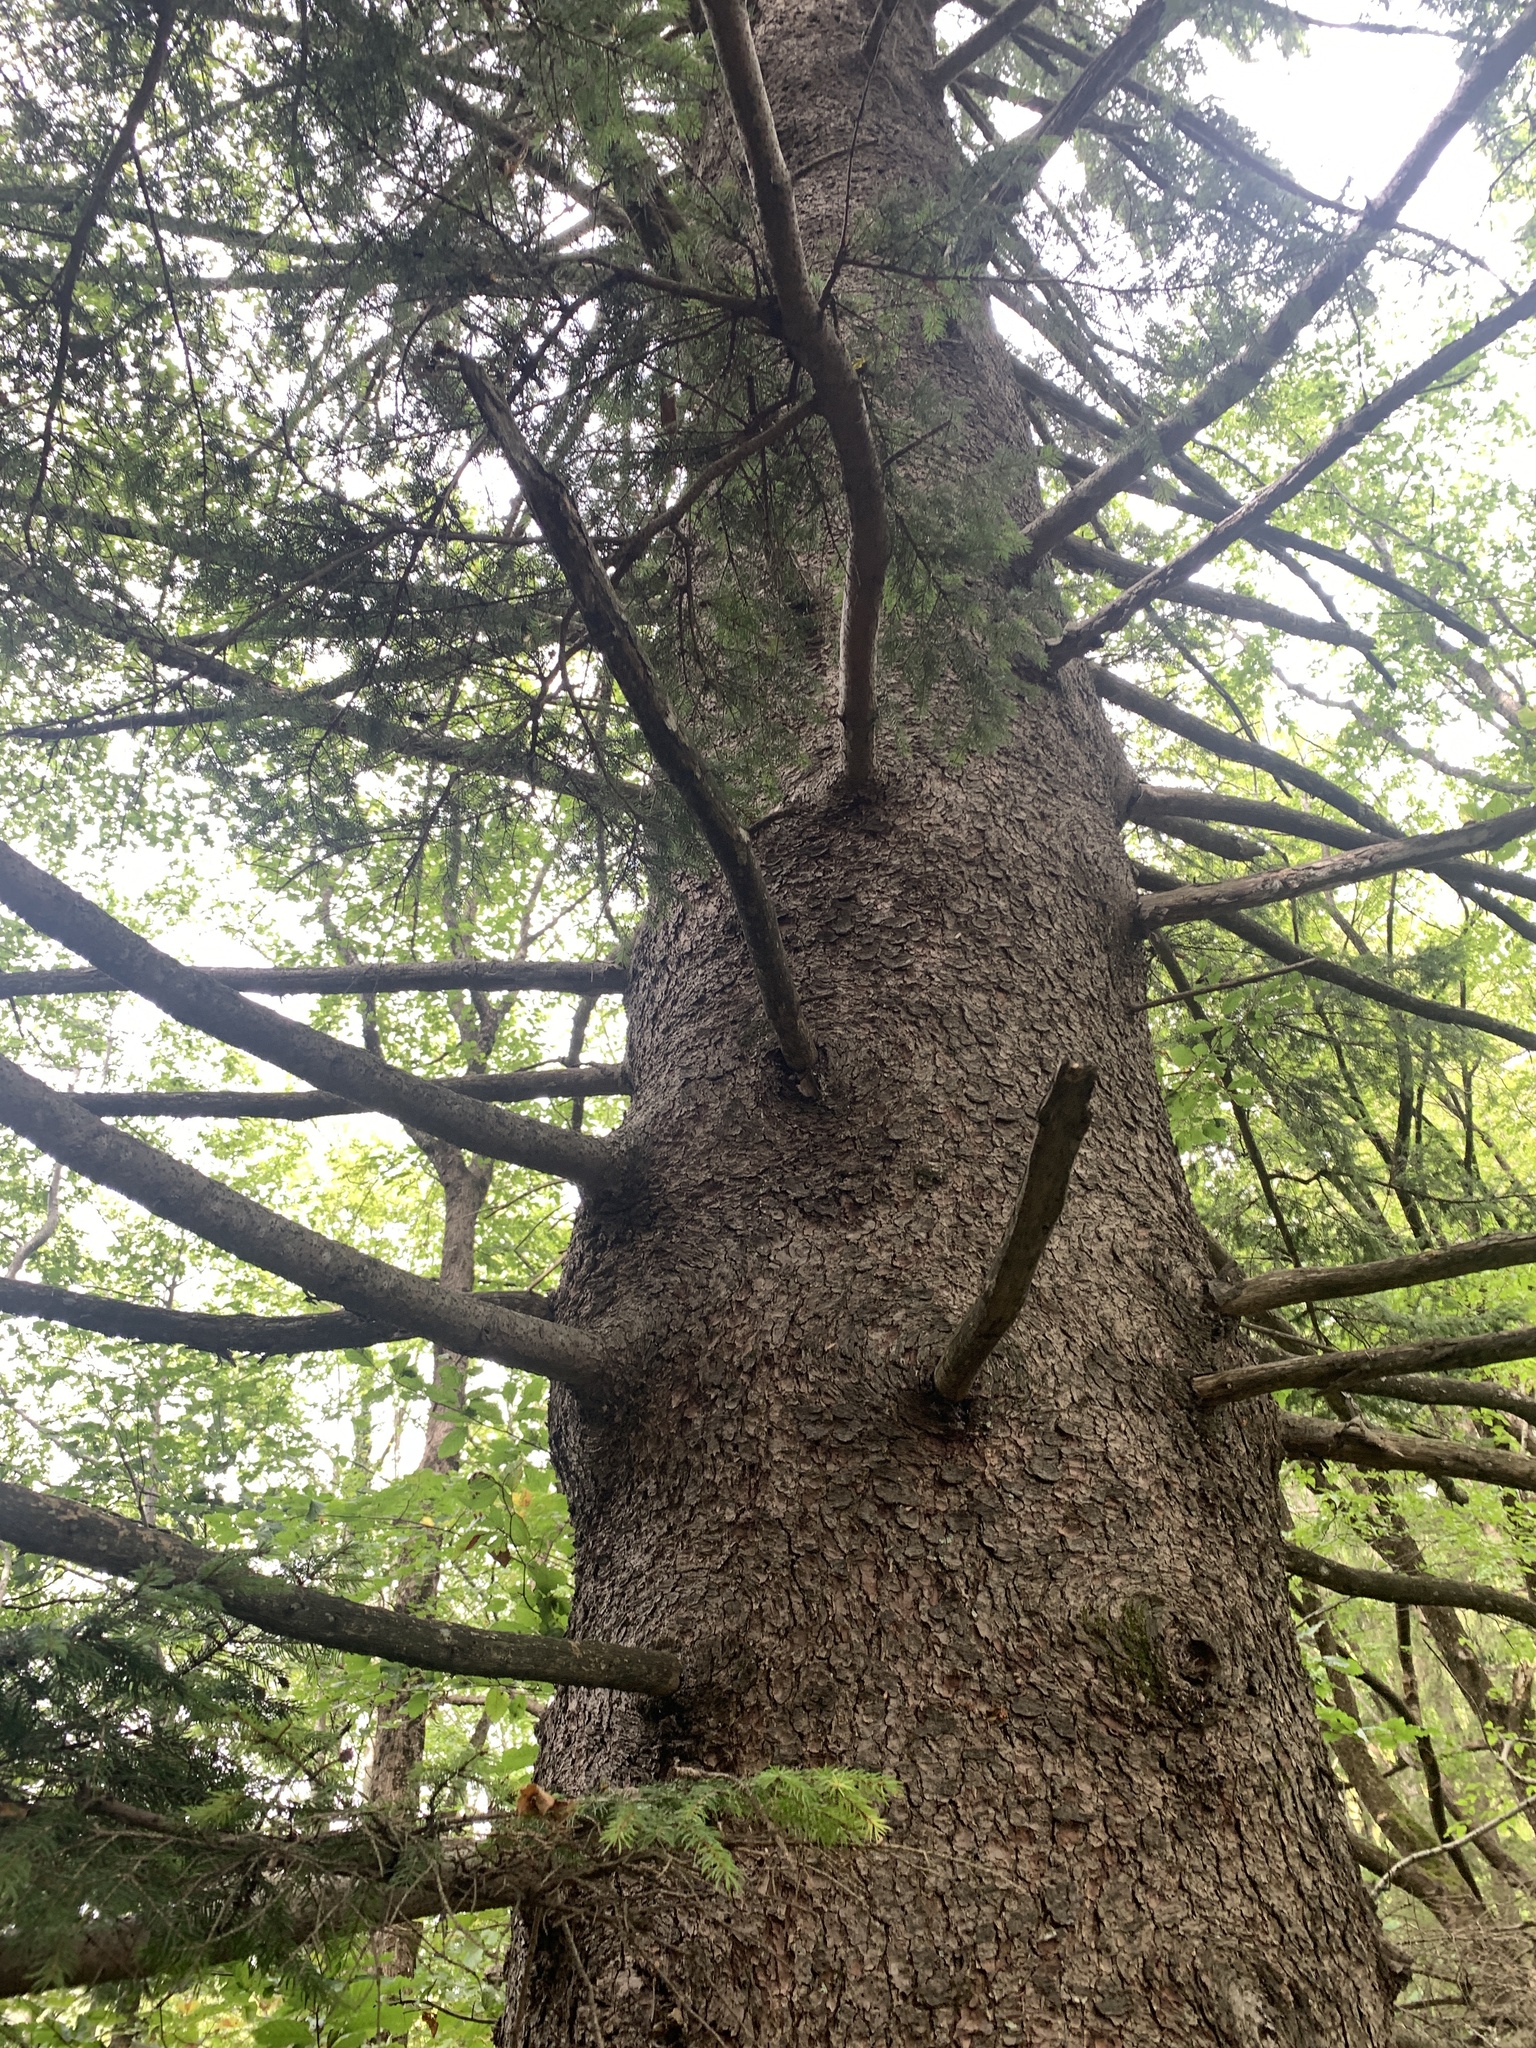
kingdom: Plantae
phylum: Tracheophyta
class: Pinopsida
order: Pinales
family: Pinaceae
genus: Picea
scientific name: Picea abies
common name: Norway spruce
